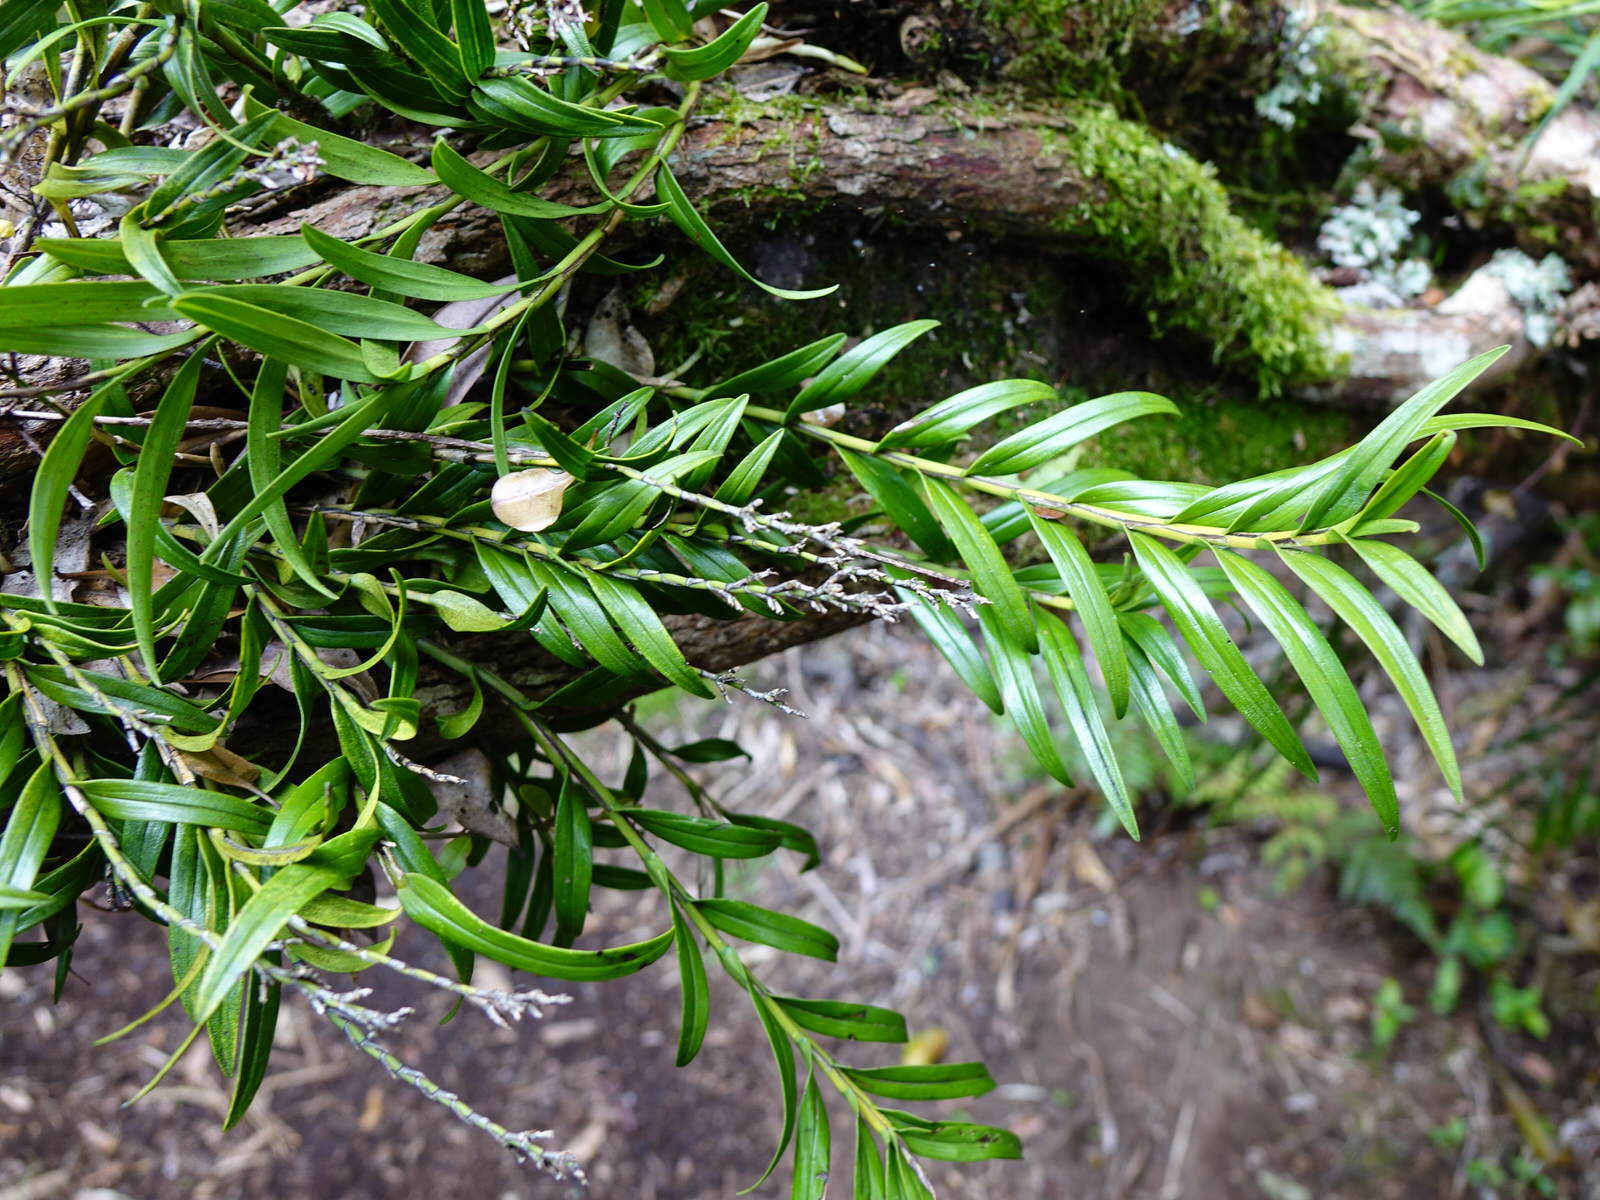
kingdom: Plantae
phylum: Tracheophyta
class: Liliopsida
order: Asparagales
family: Orchidaceae
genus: Earina
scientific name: Earina autumnalis
